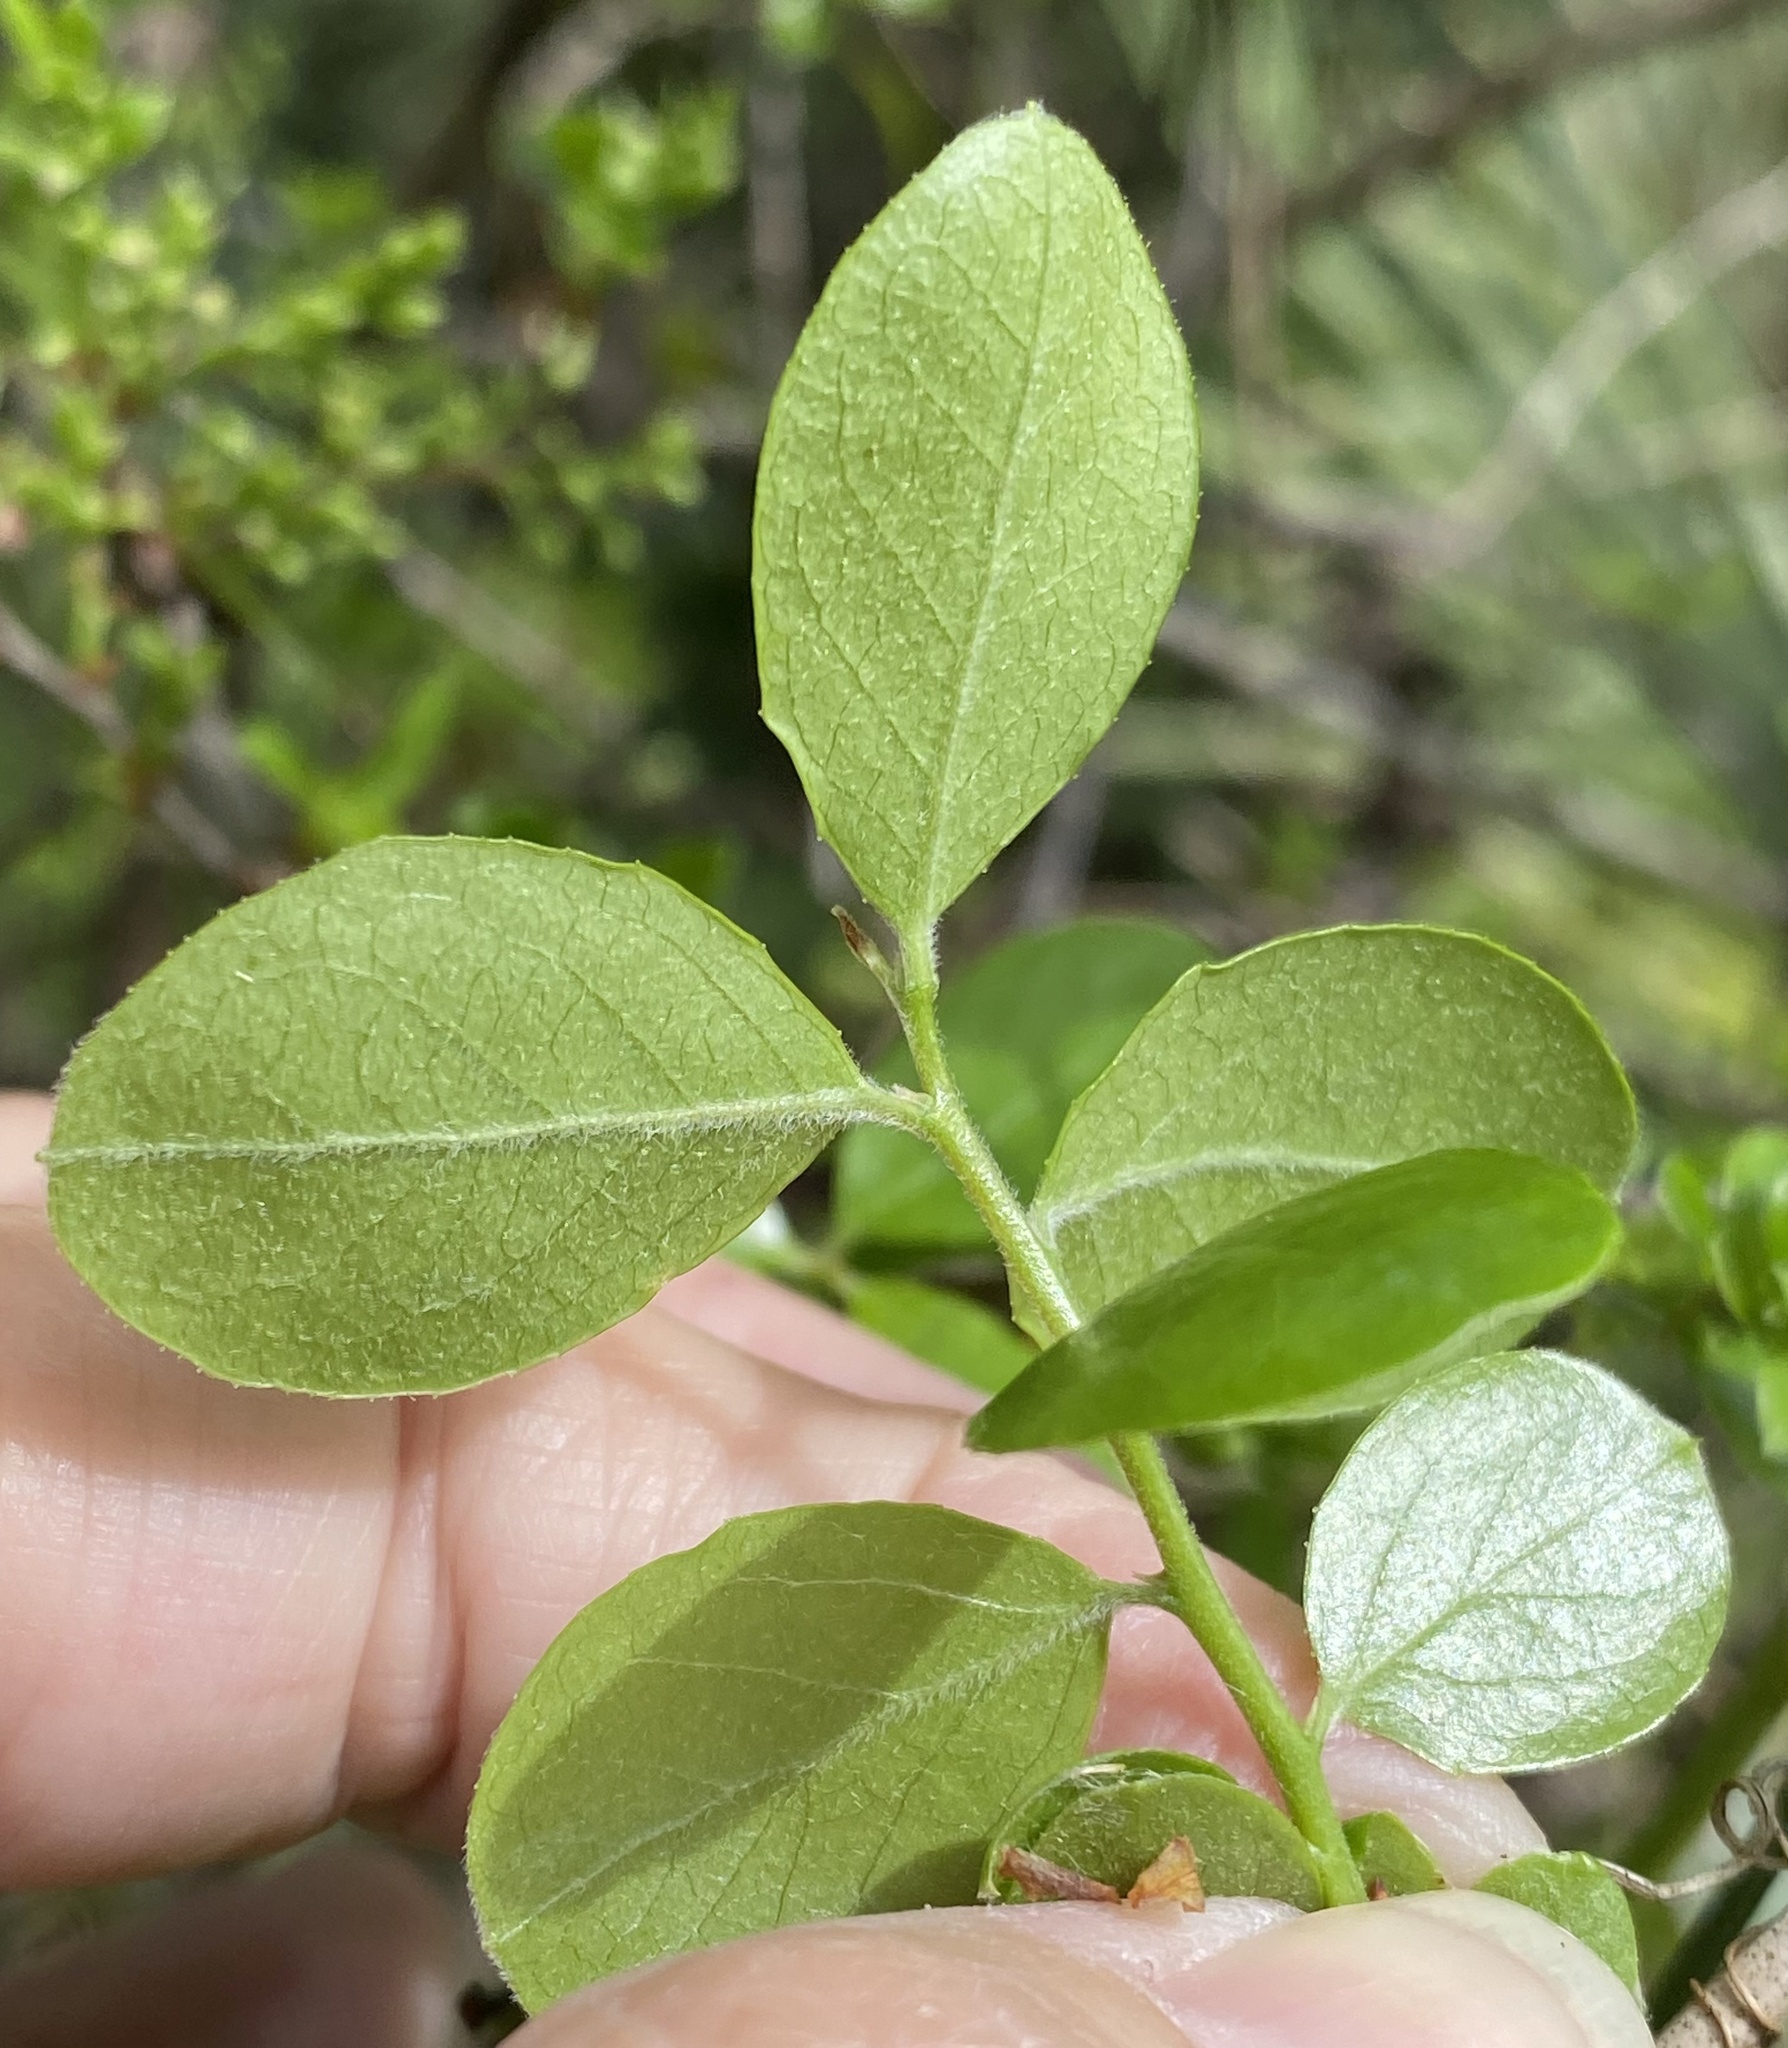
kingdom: Plantae
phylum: Tracheophyta
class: Magnoliopsida
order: Ericales
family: Ericaceae
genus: Vaccinium
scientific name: Vaccinium arboreum
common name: Farkleberry
